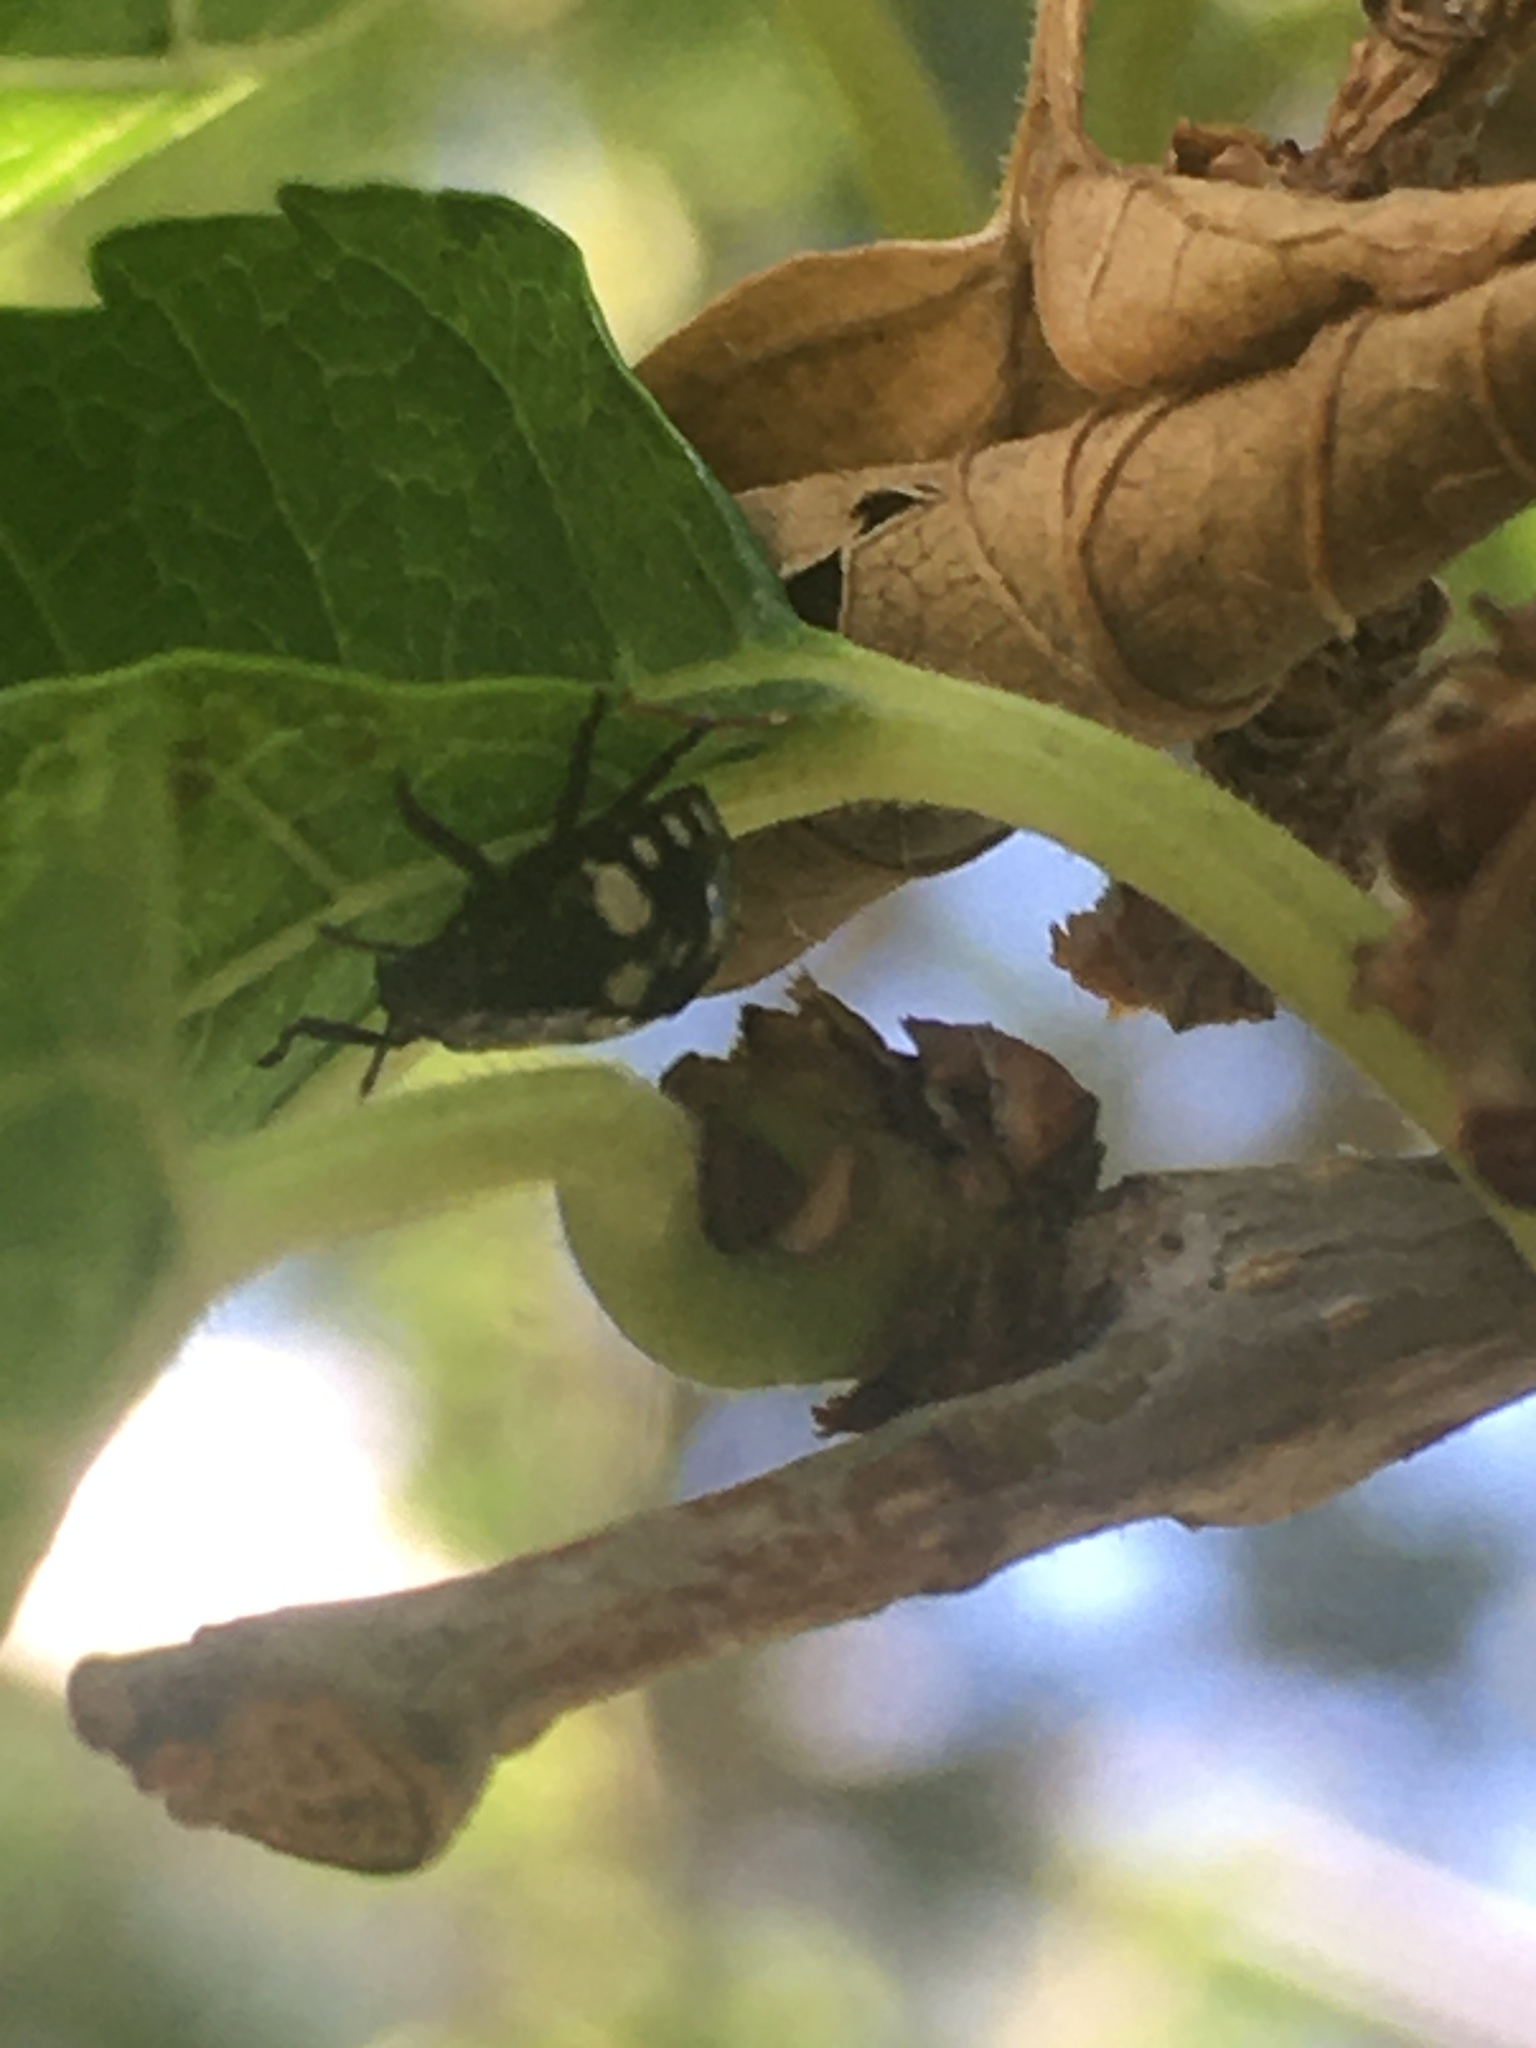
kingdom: Animalia
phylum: Arthropoda
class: Insecta
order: Hemiptera
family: Pentatomidae
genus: Nezara
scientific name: Nezara viridula
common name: Southern green stink bug
